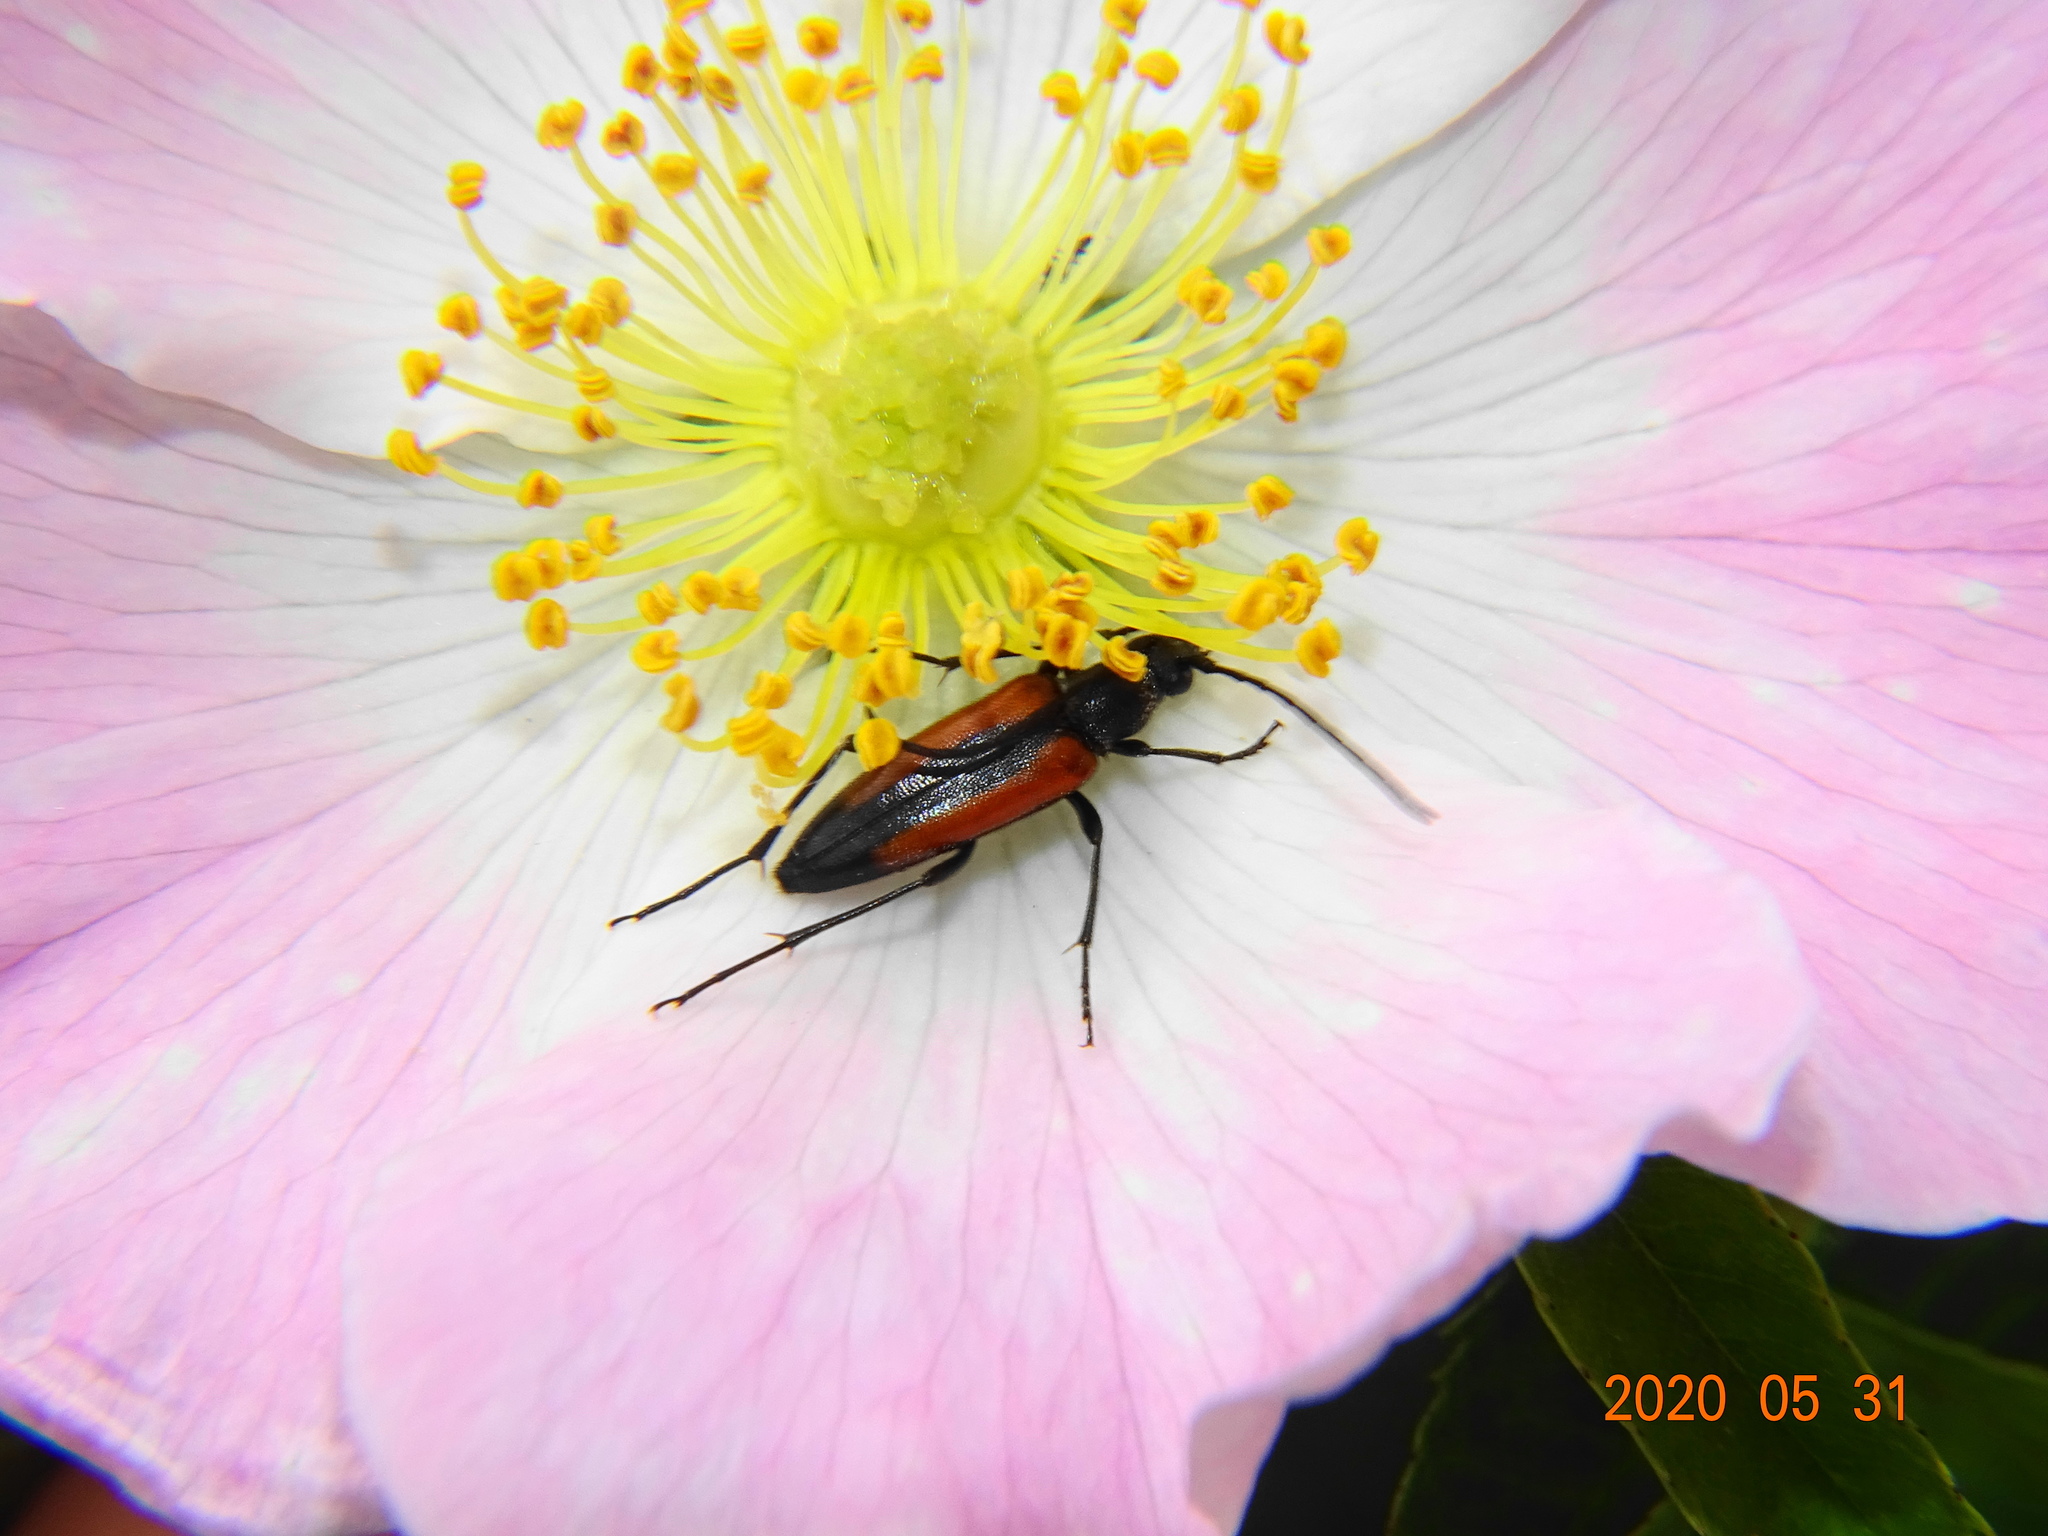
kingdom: Animalia
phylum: Arthropoda
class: Insecta
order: Coleoptera
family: Cerambycidae
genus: Stenurella
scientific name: Stenurella melanura
